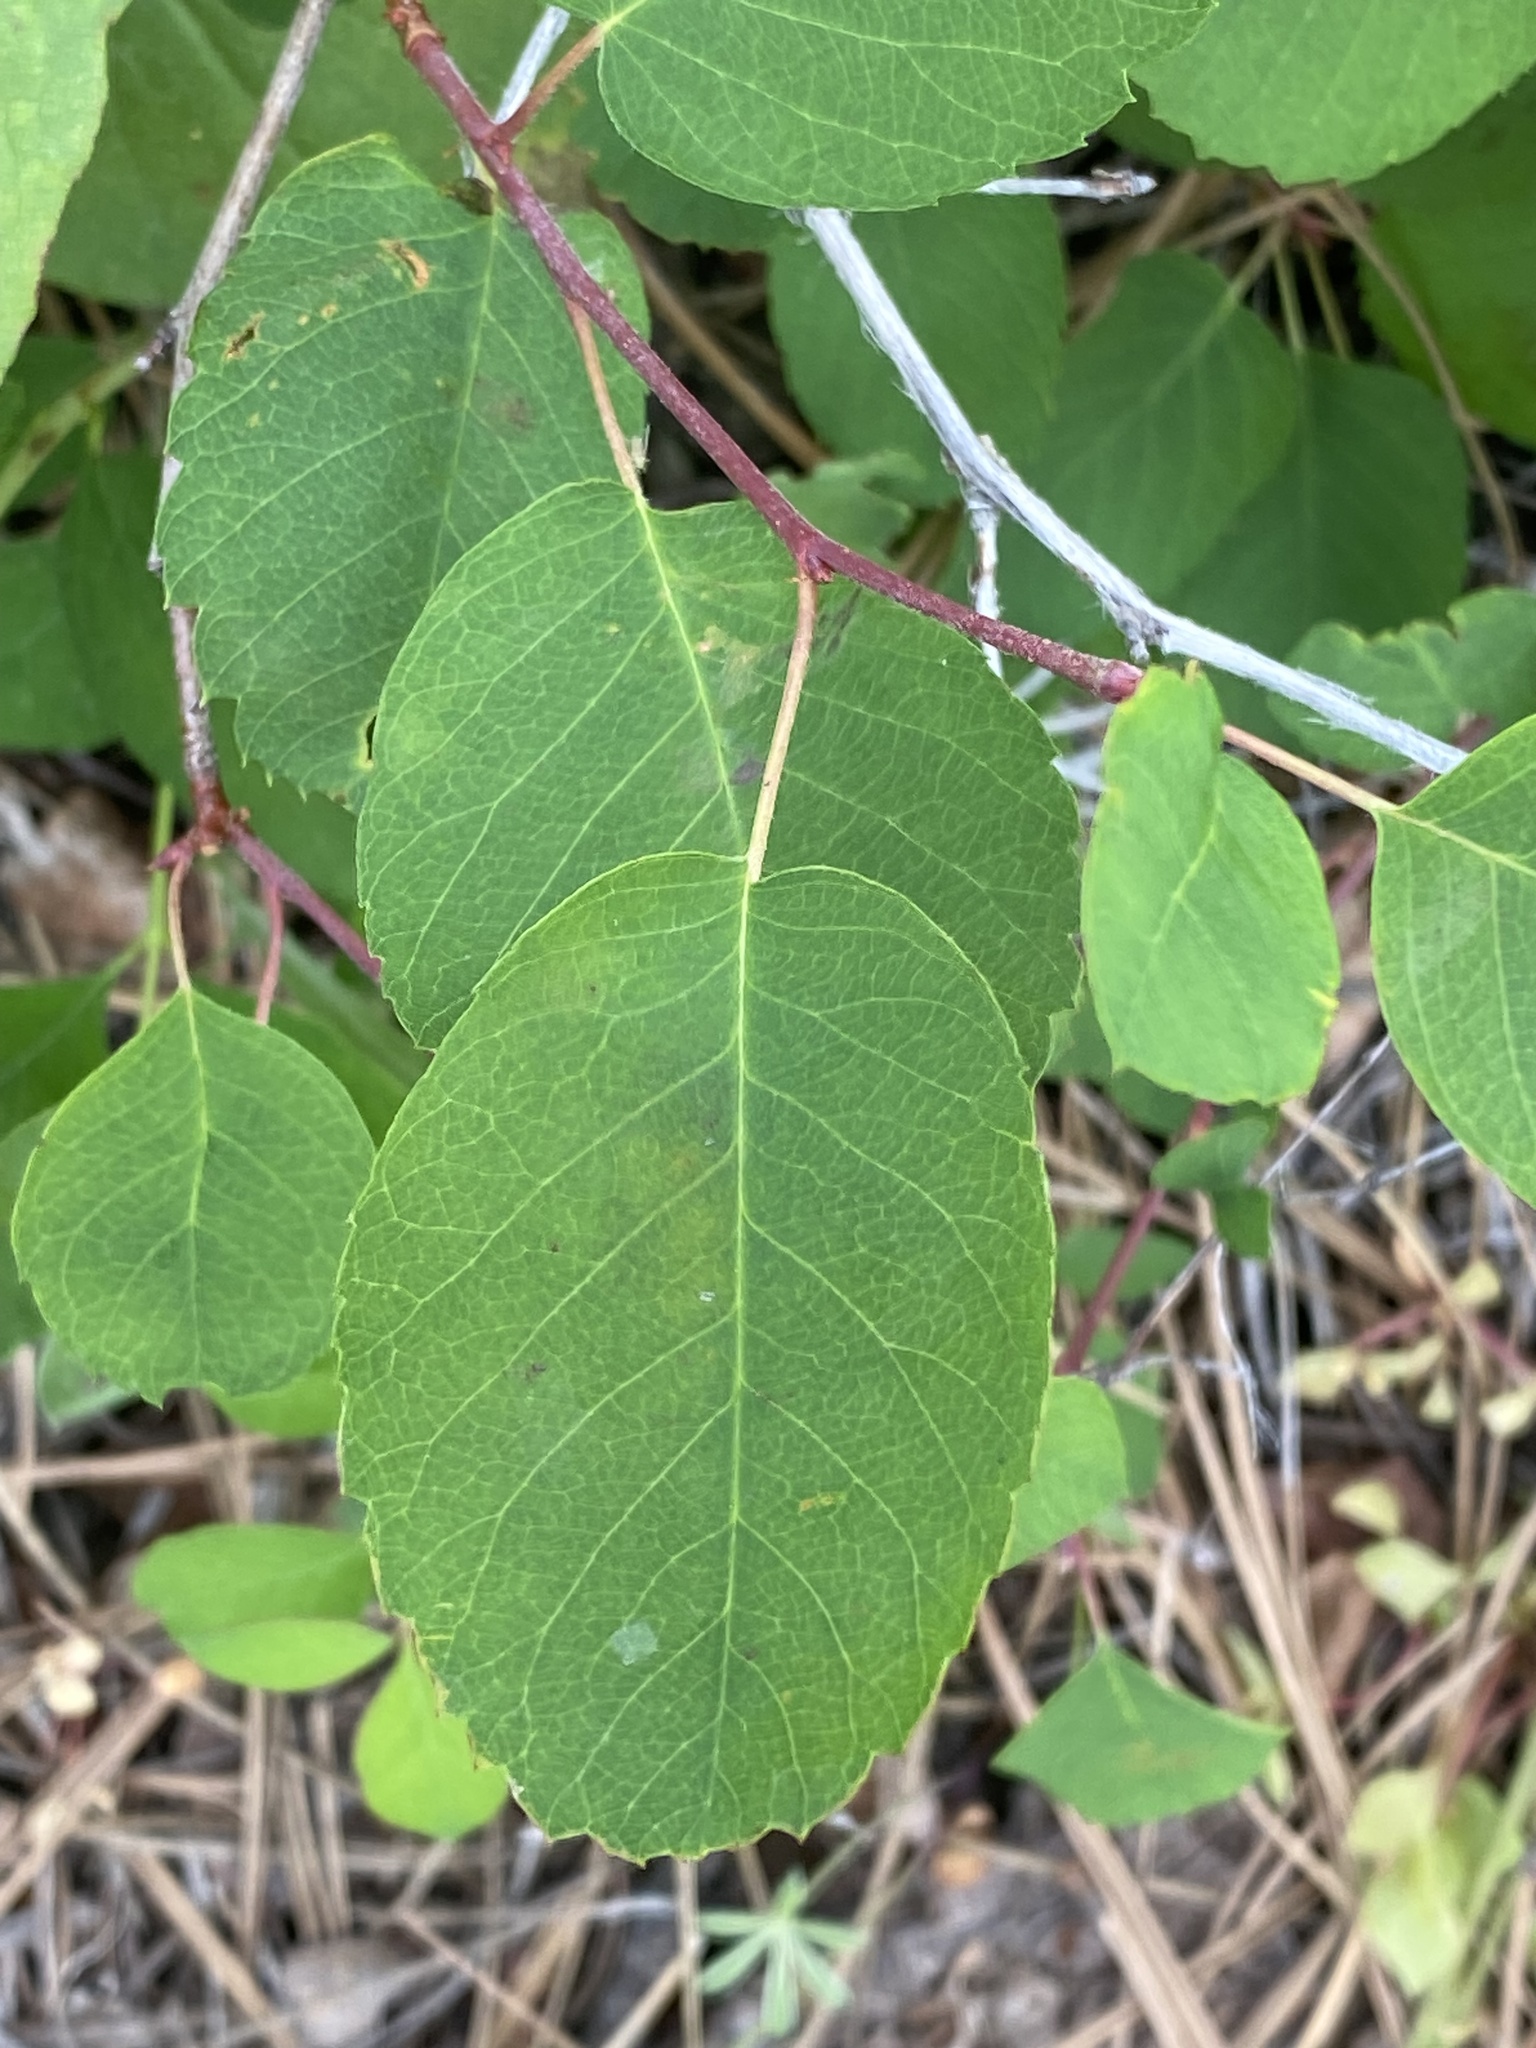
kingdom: Plantae
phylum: Tracheophyta
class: Magnoliopsida
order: Rosales
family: Rosaceae
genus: Amelanchier
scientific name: Amelanchier alnifolia
